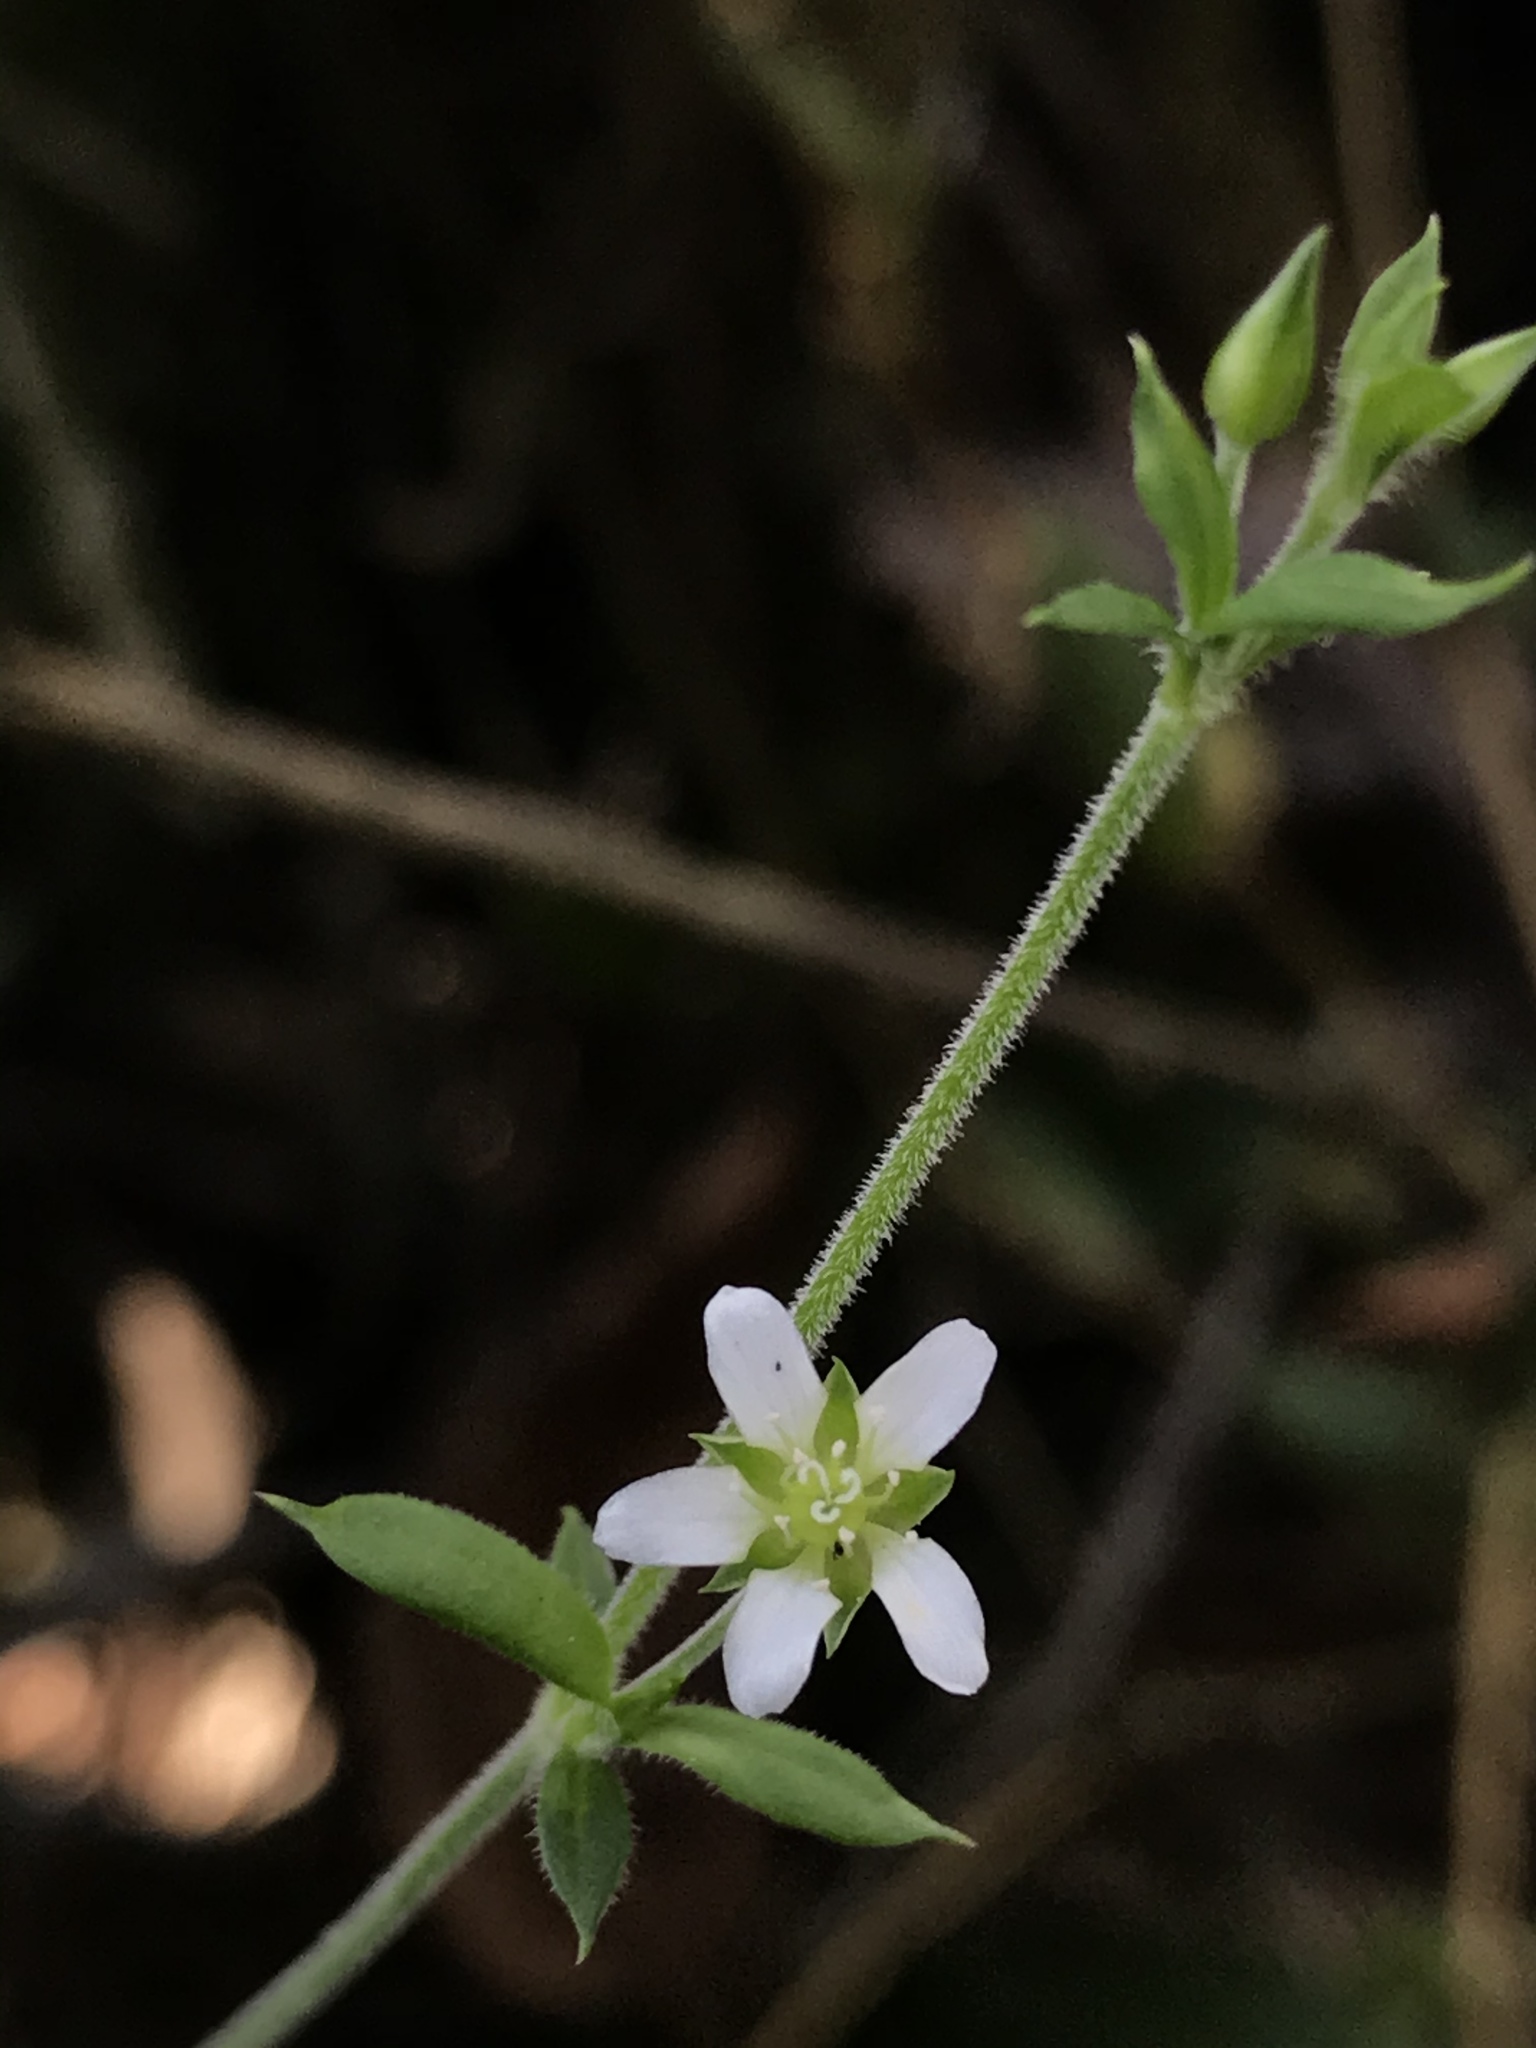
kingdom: Plantae
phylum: Tracheophyta
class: Magnoliopsida
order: Caryophyllales
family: Caryophyllaceae
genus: Arenaria
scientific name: Arenaria lanuginosa
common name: Spread sandwort
